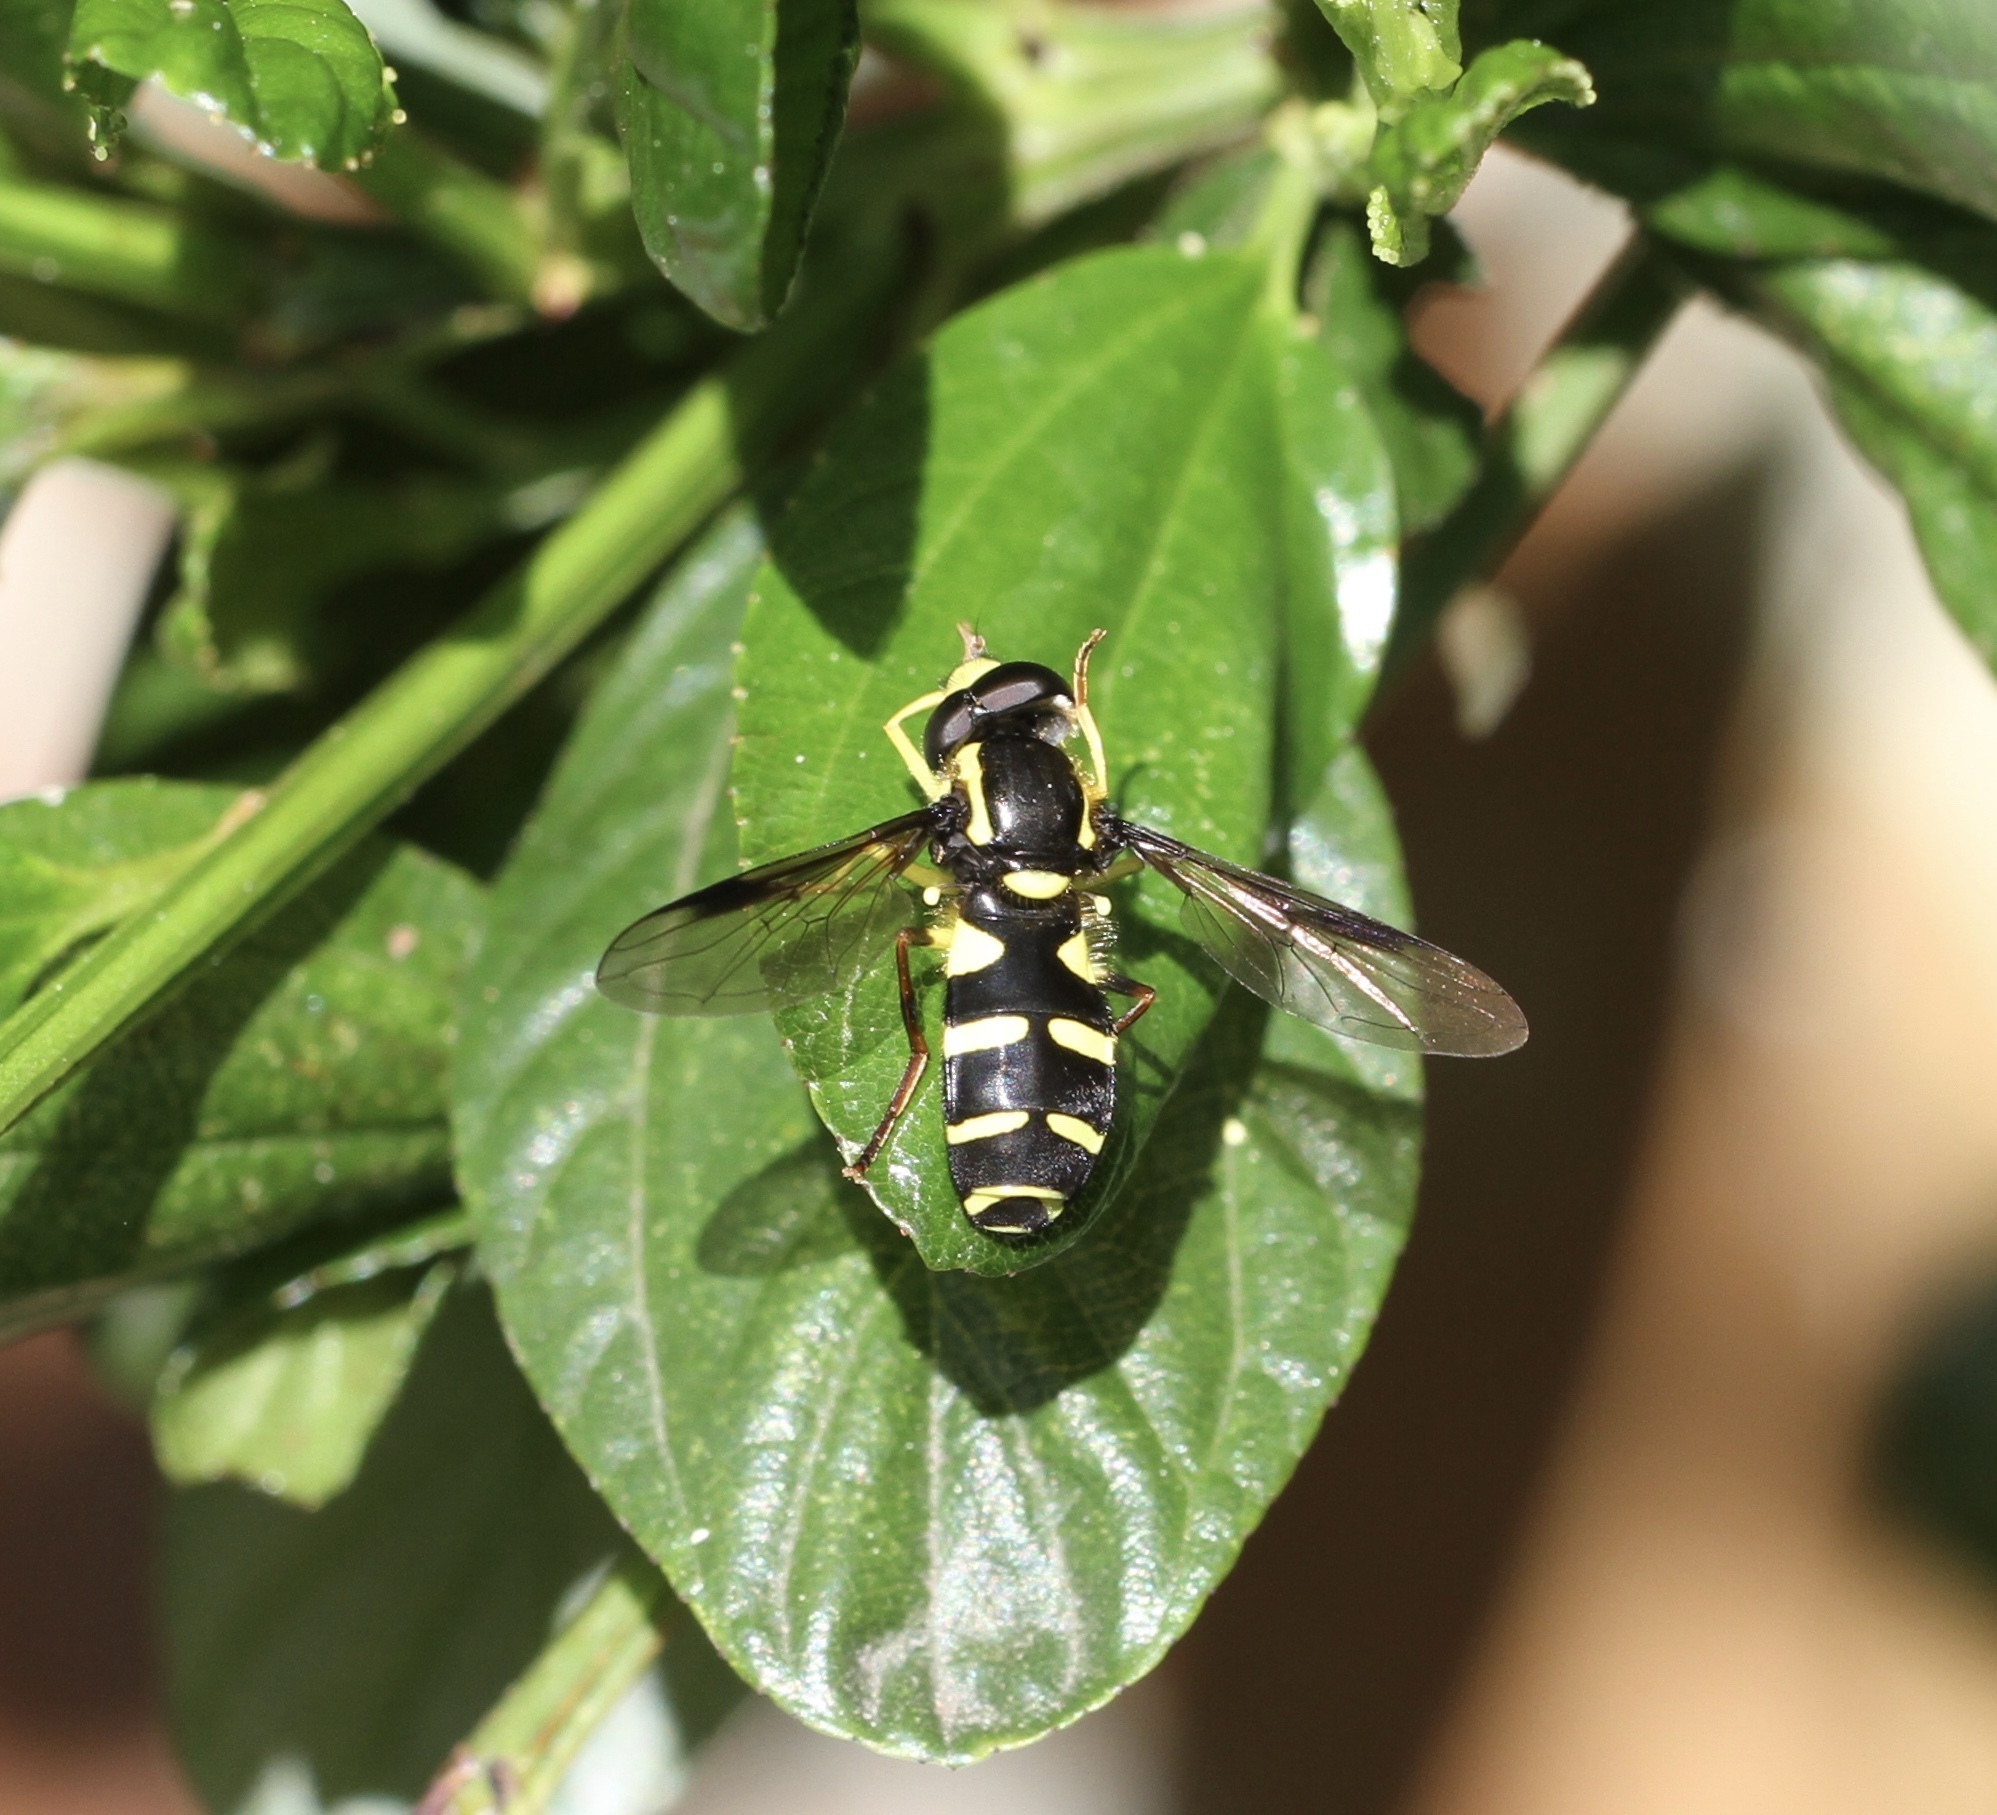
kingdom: Animalia
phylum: Arthropoda
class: Insecta
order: Diptera
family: Syrphidae
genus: Philhelius
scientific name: Philhelius pedissequum
